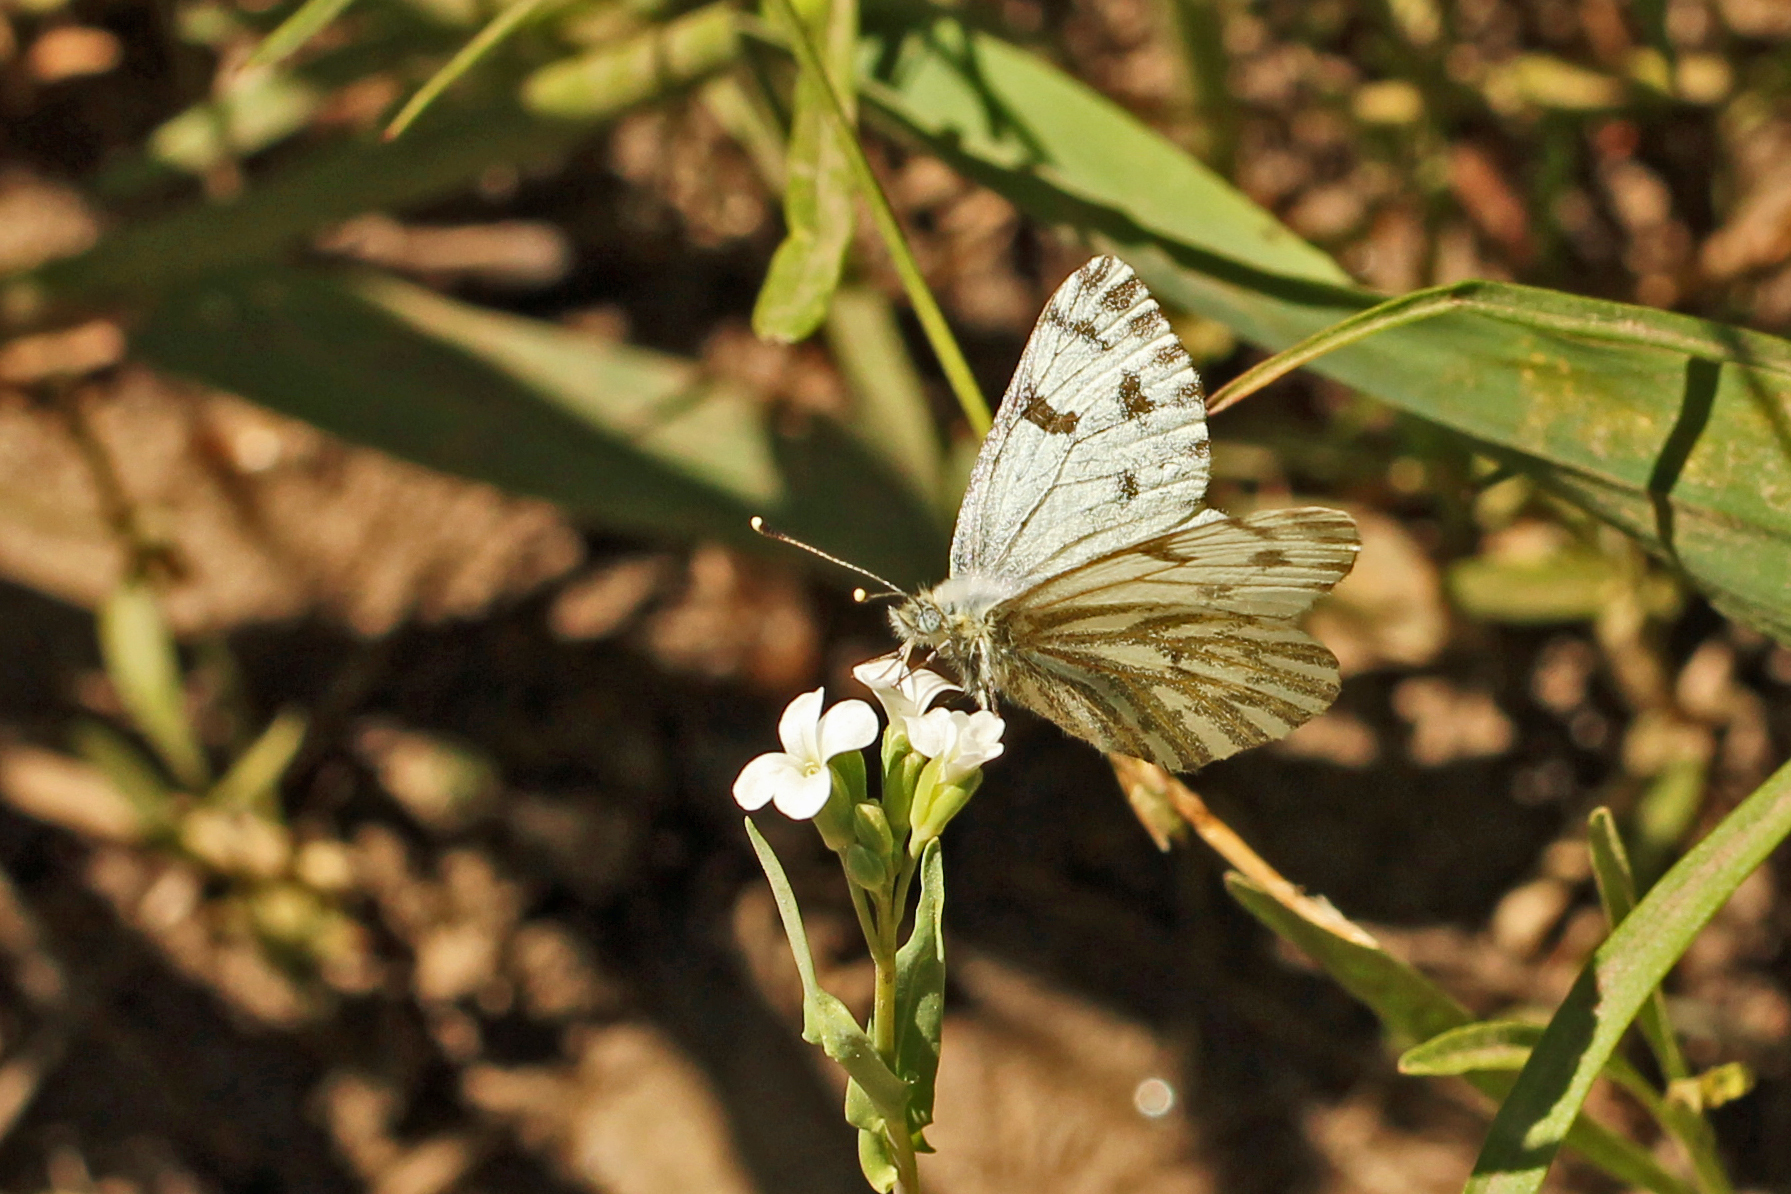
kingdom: Animalia
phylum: Arthropoda
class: Insecta
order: Lepidoptera
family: Pieridae
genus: Pontia
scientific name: Pontia sisymbrii
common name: California white
